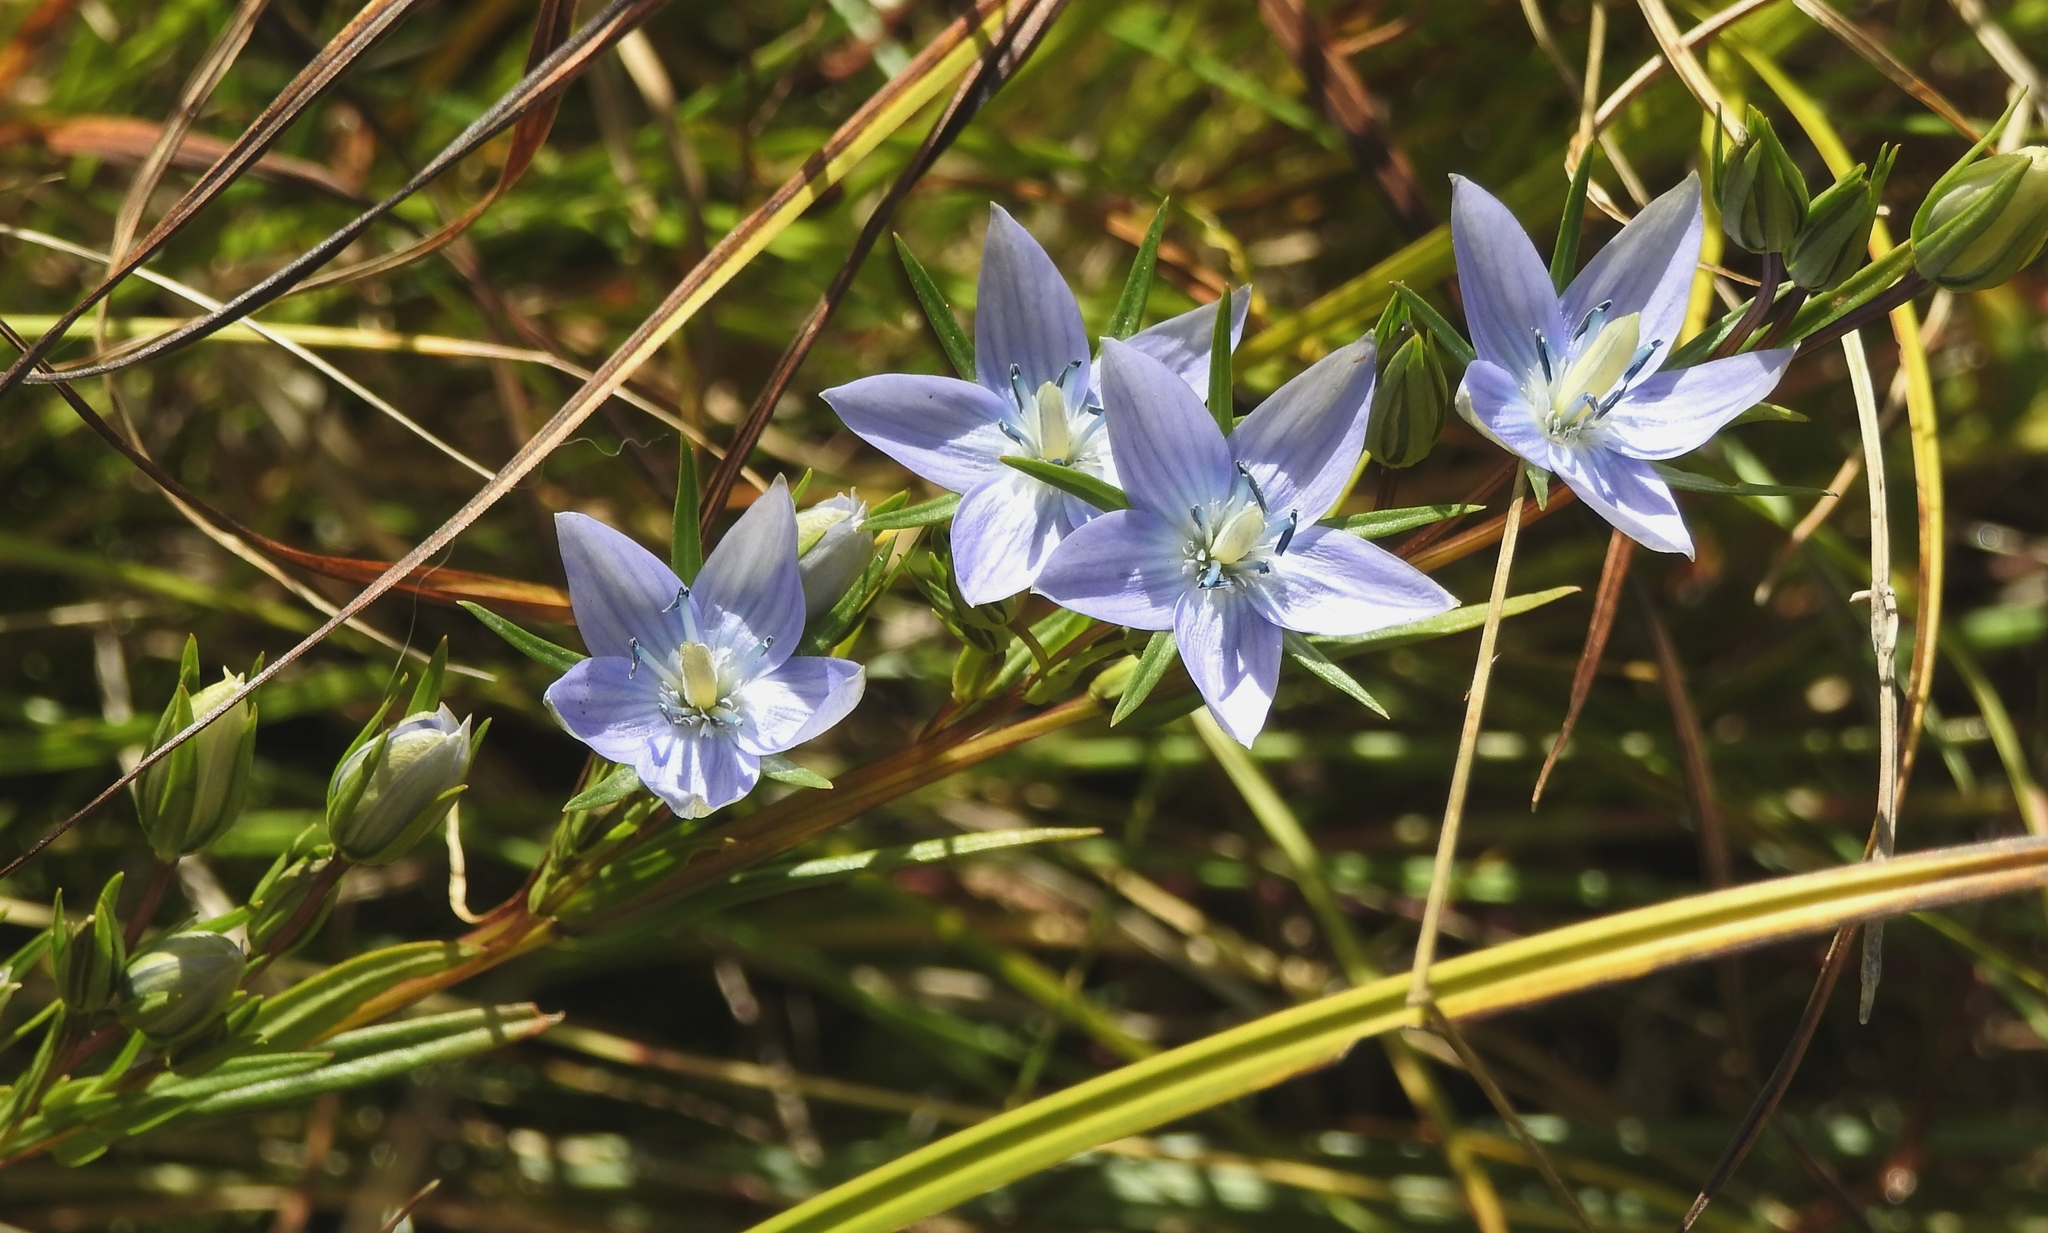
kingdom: Plantae
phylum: Tracheophyta
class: Magnoliopsida
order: Gentianales
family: Gentianaceae
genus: Lomatogonium
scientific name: Lomatogonium rotatum
